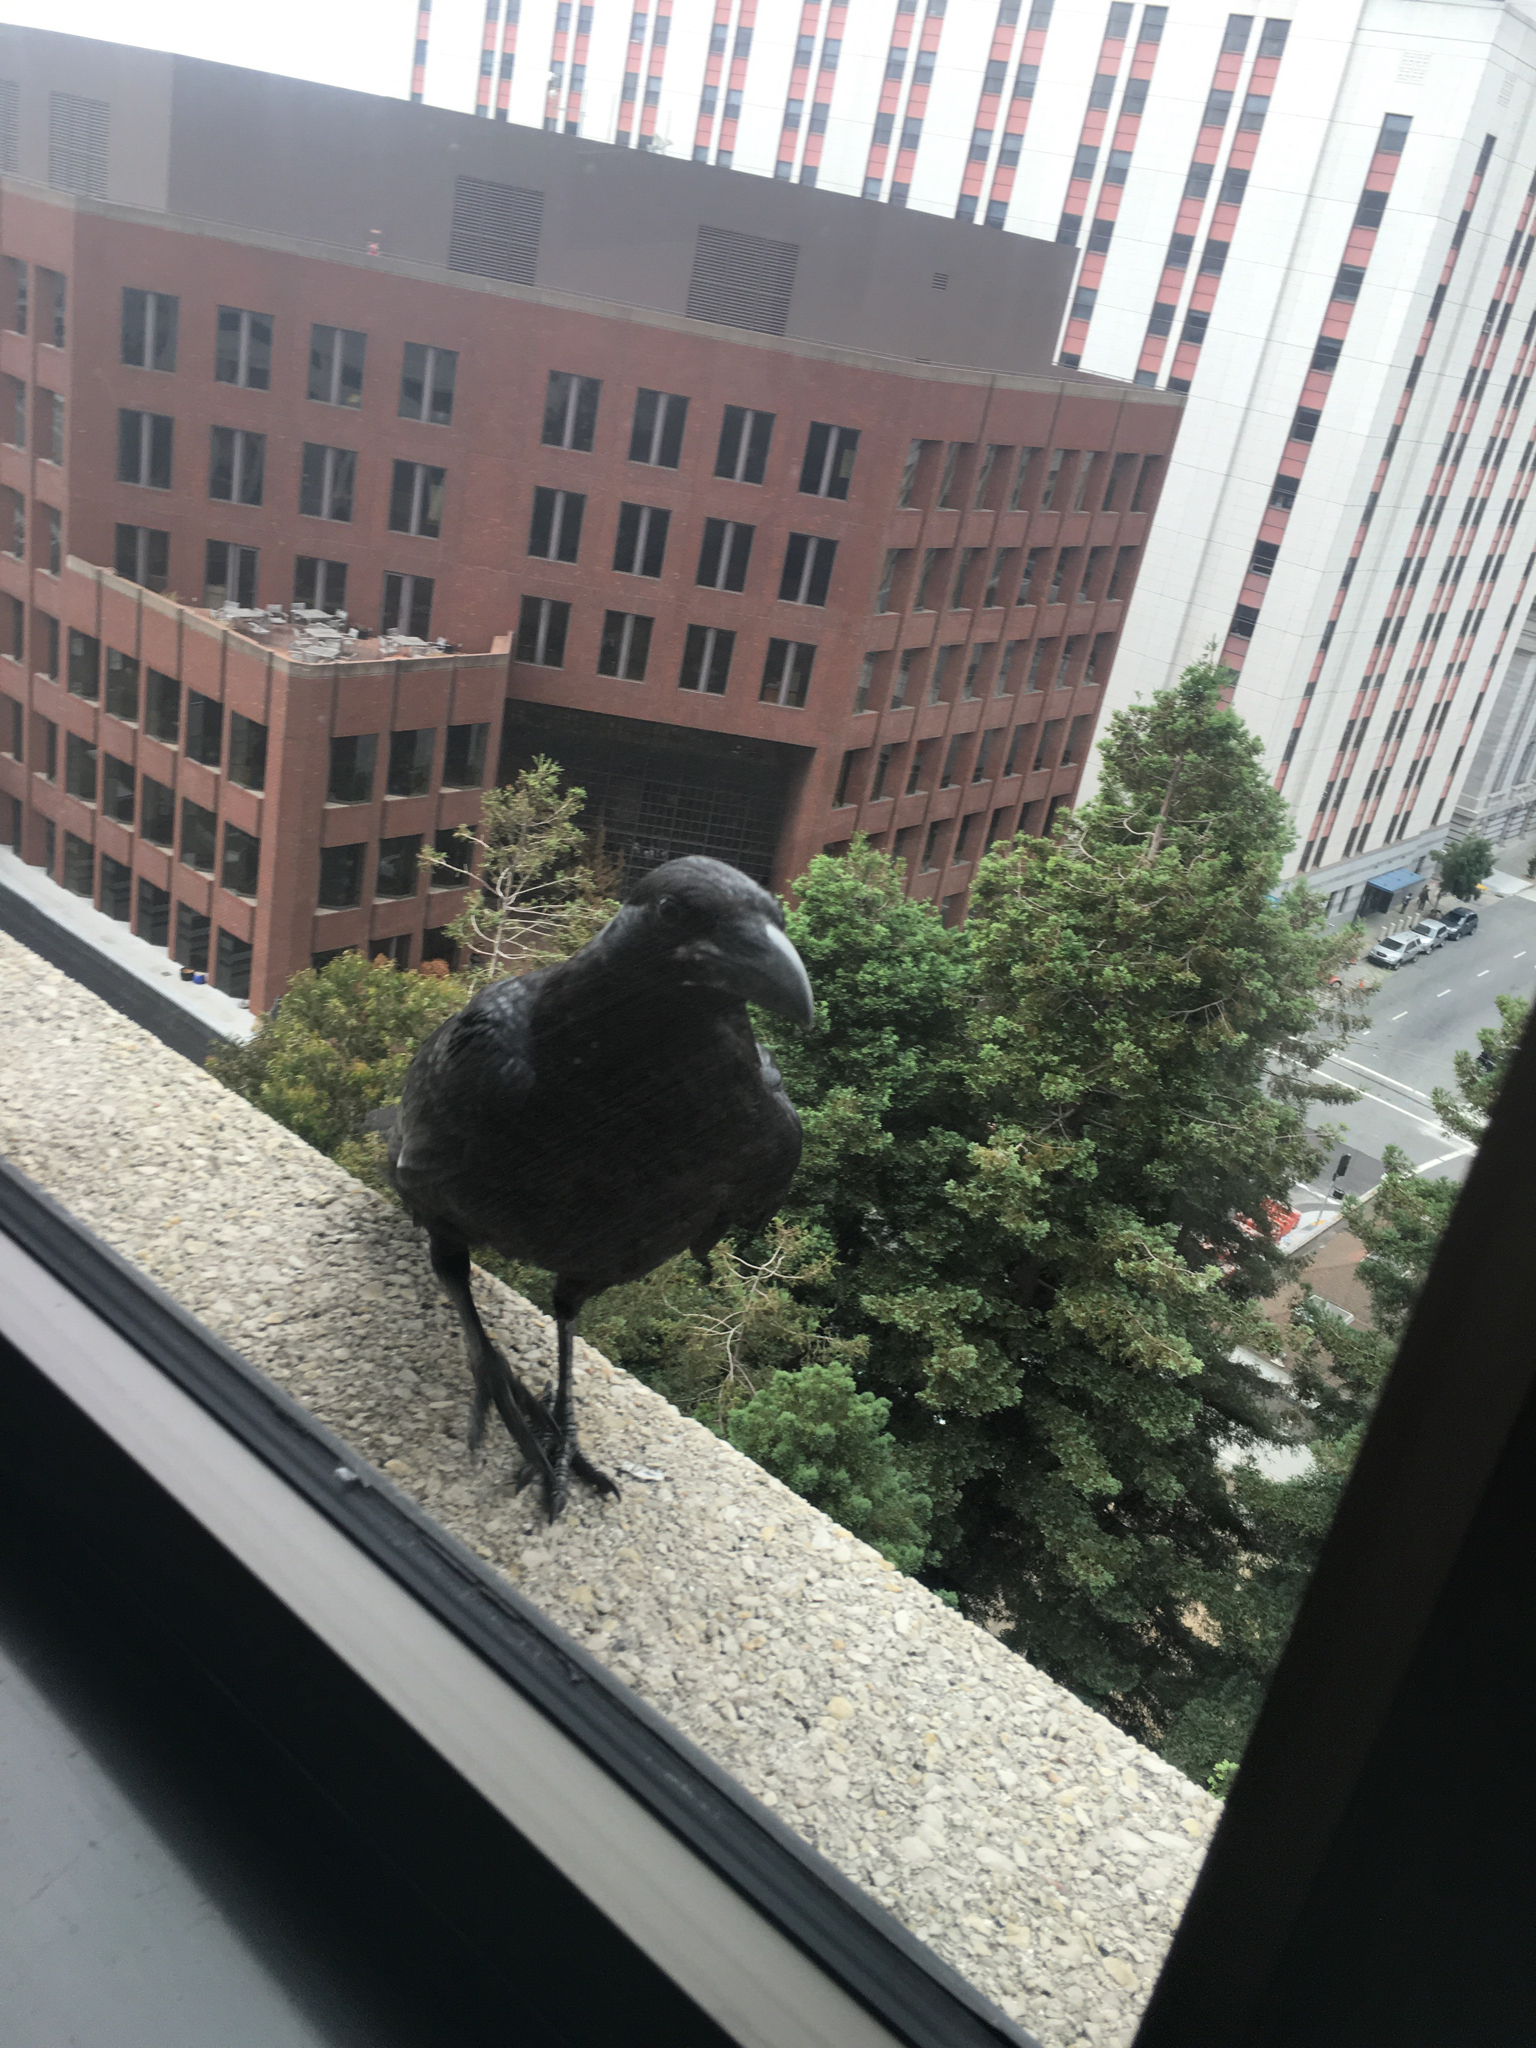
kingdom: Animalia
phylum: Chordata
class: Aves
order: Passeriformes
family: Corvidae
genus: Corvus
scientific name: Corvus brachyrhynchos
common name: American crow
